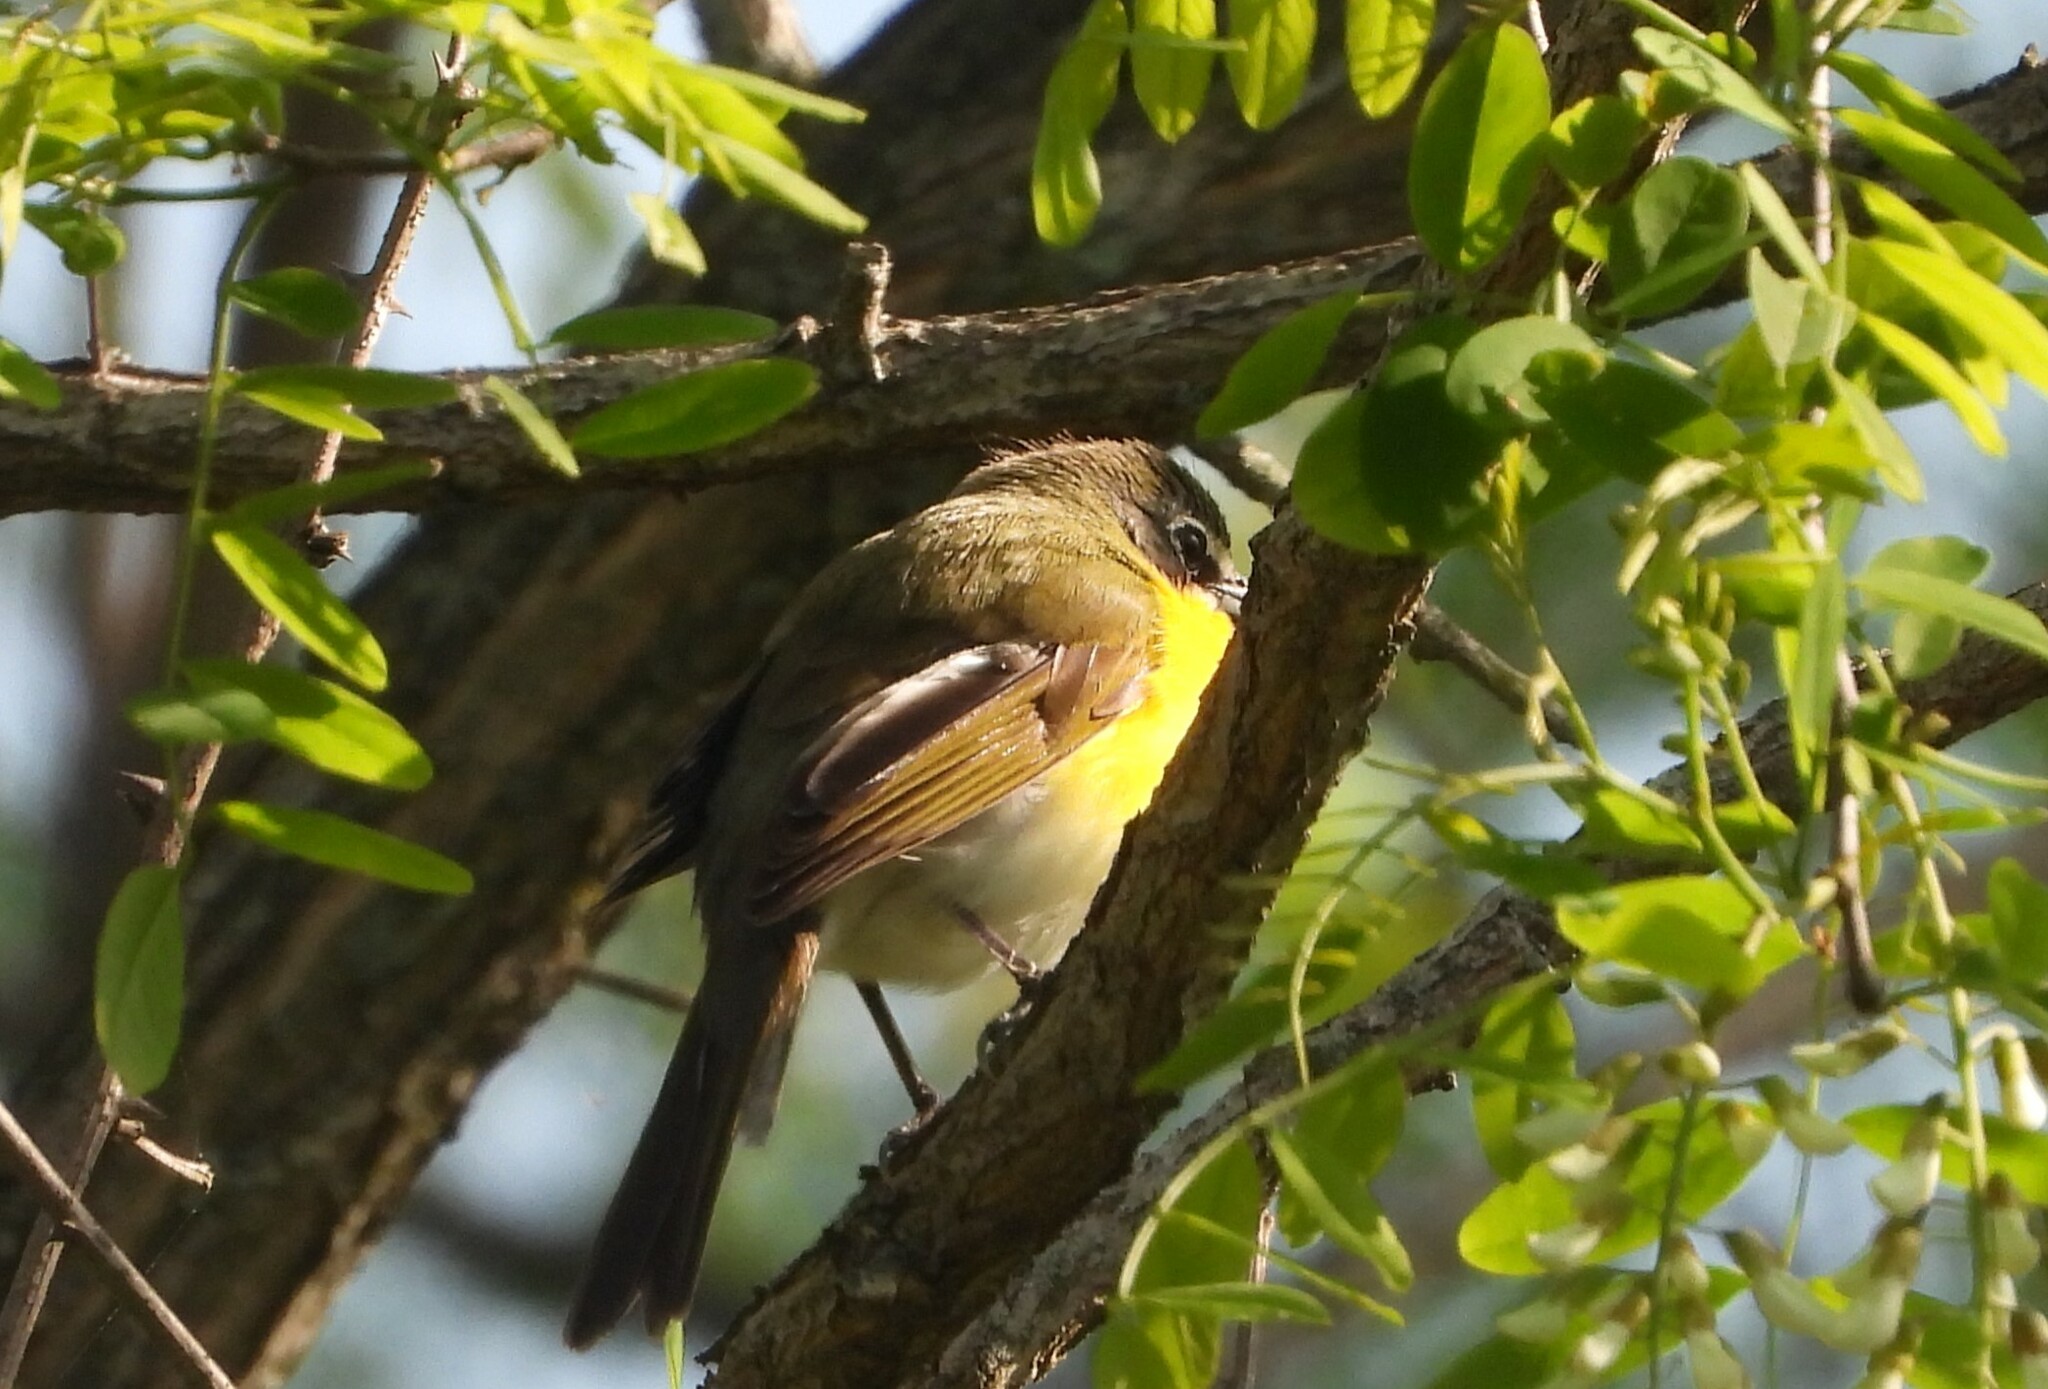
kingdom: Animalia
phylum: Chordata
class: Aves
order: Passeriformes
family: Parulidae
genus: Icteria
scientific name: Icteria virens
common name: Yellow-breasted chat
